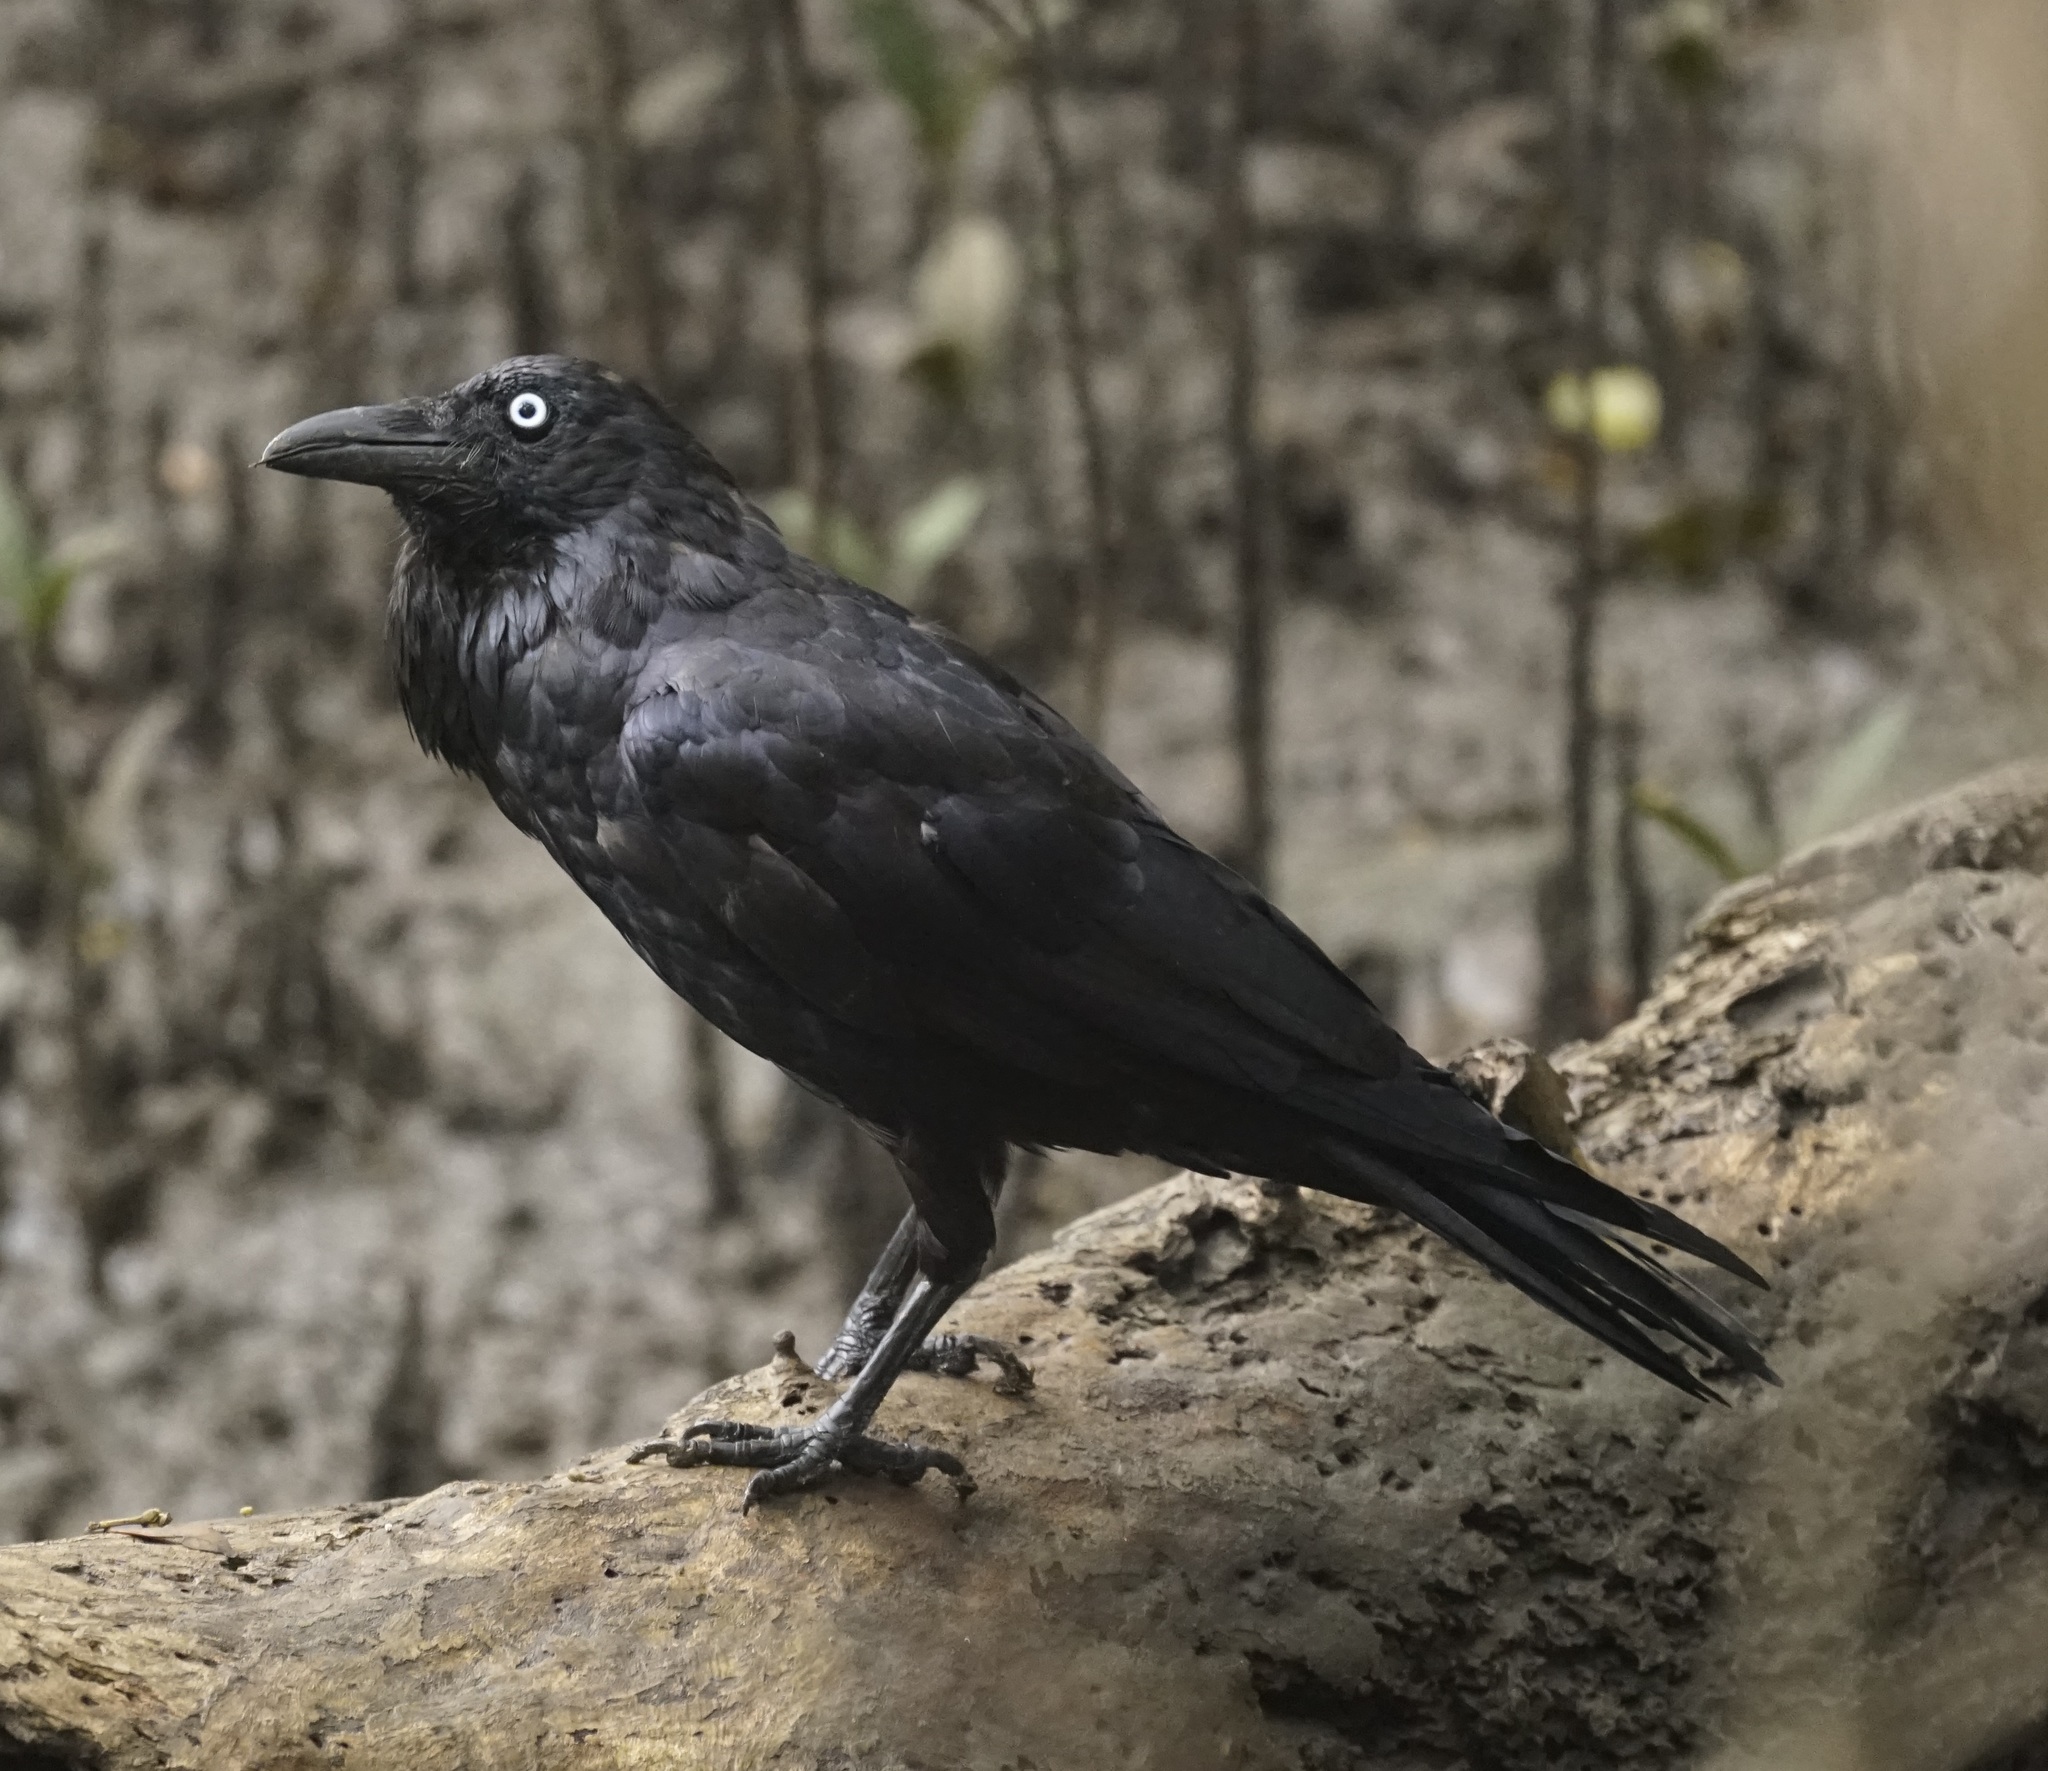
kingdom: Animalia
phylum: Chordata
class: Aves
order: Passeriformes
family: Corvidae
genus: Corvus
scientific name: Corvus coronoides
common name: Australian raven
